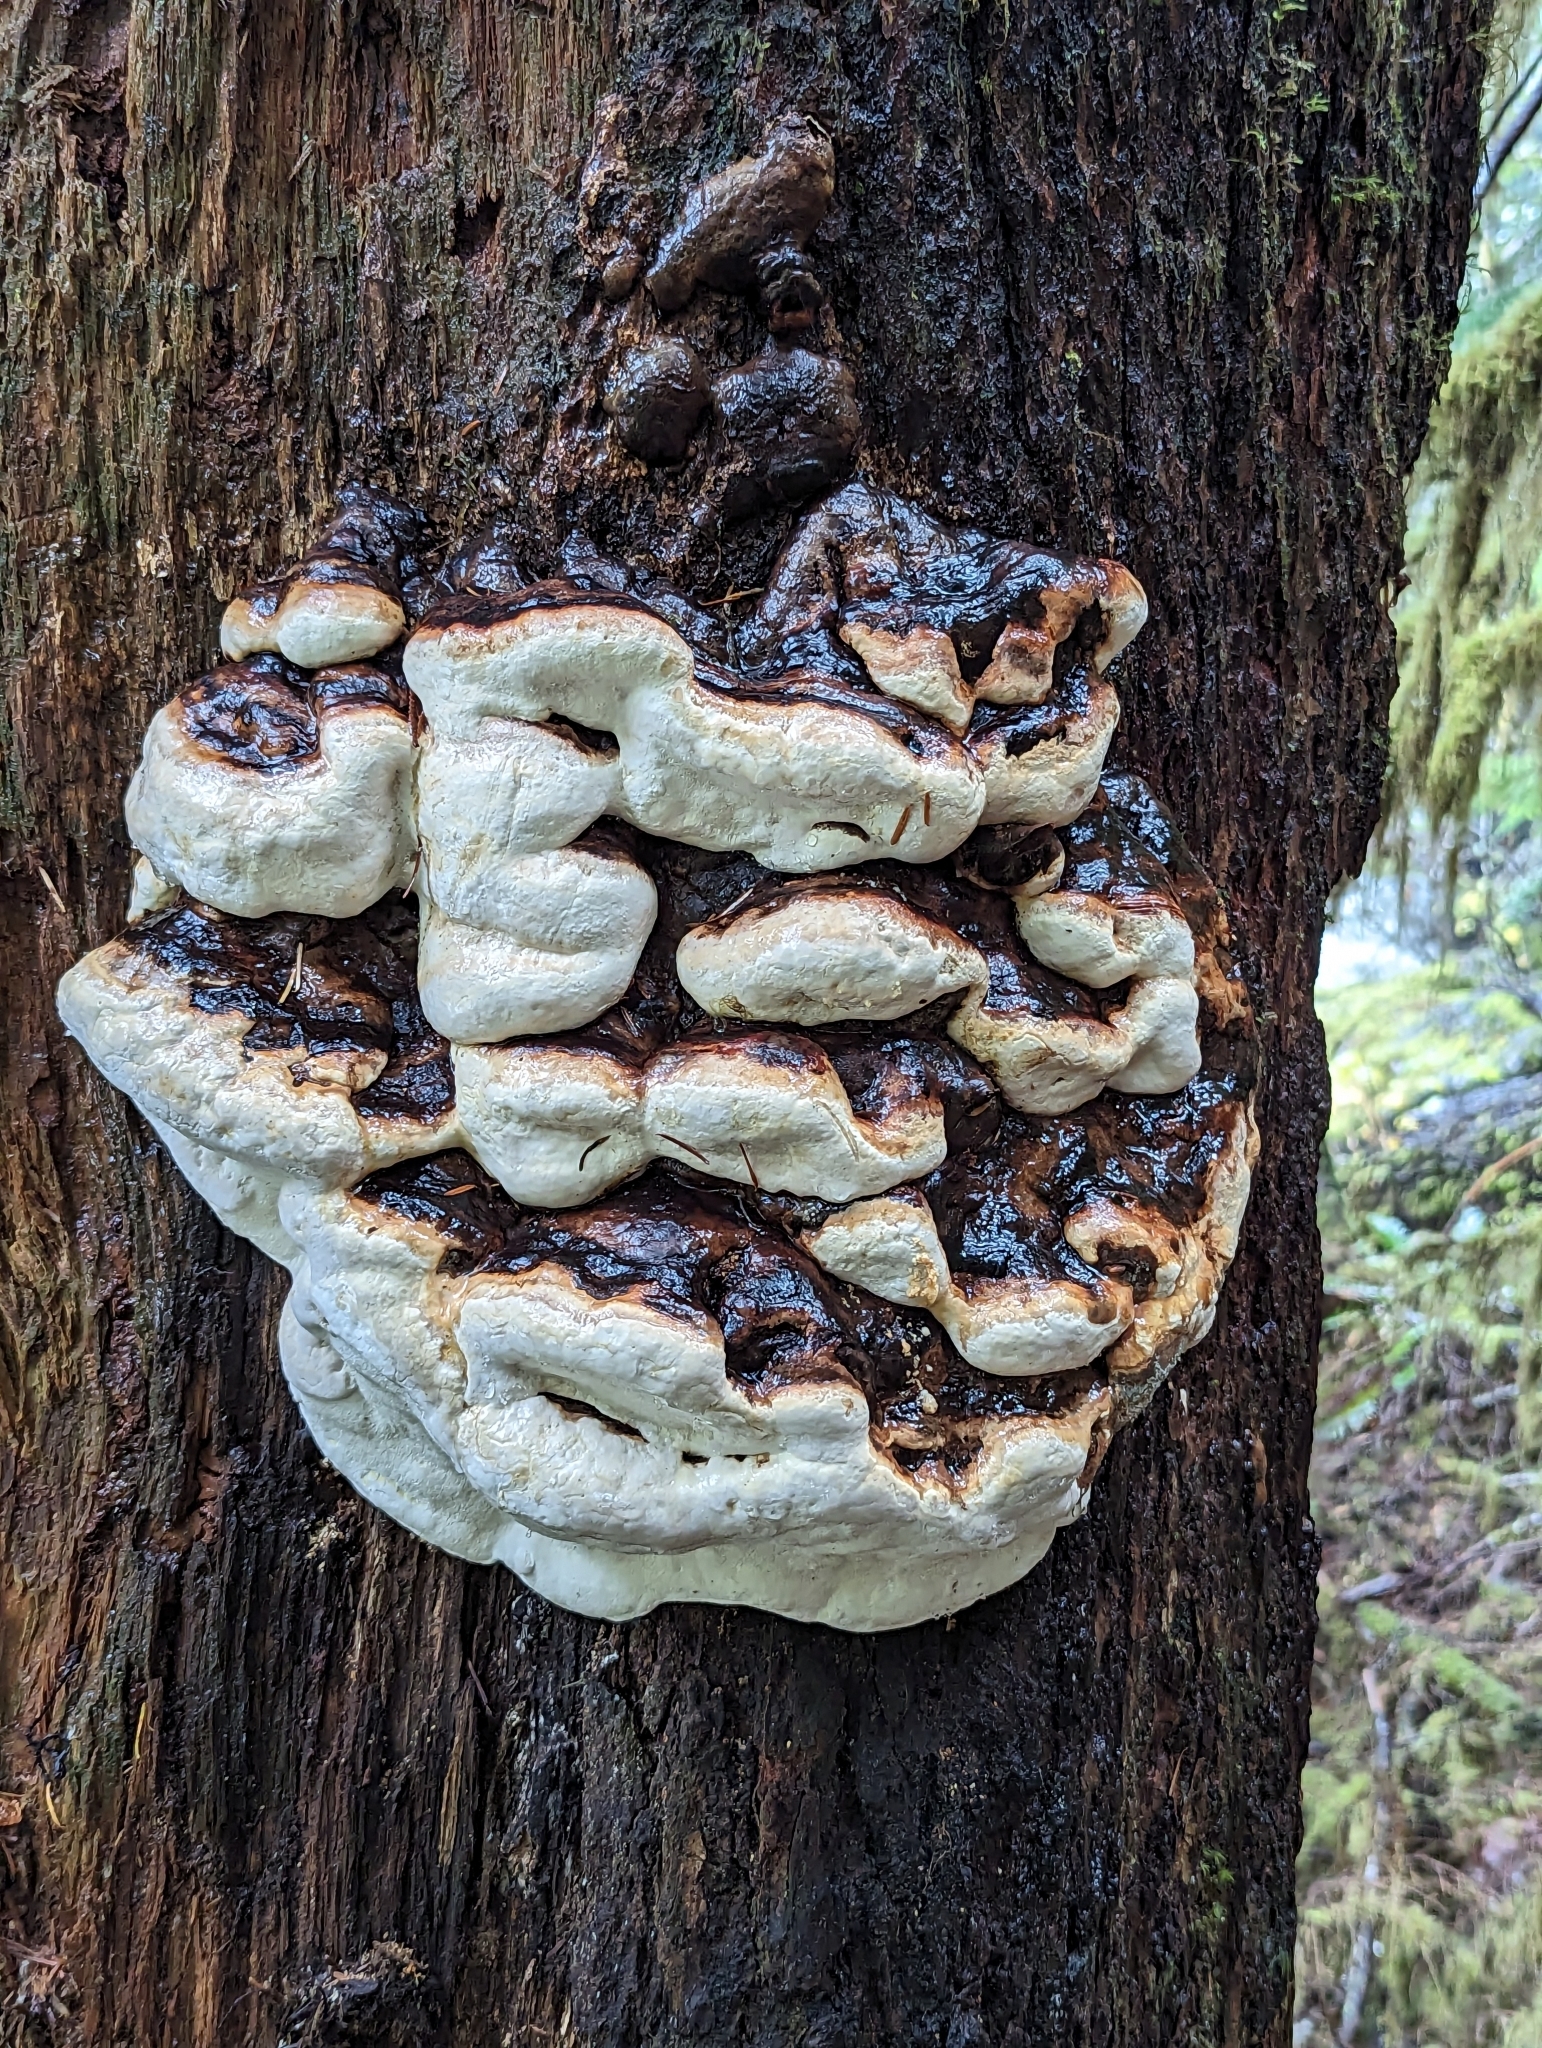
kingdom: Fungi
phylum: Basidiomycota
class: Agaricomycetes
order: Polyporales
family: Fomitopsidaceae
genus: Fomitopsis
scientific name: Fomitopsis mounceae
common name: Northern red belt
